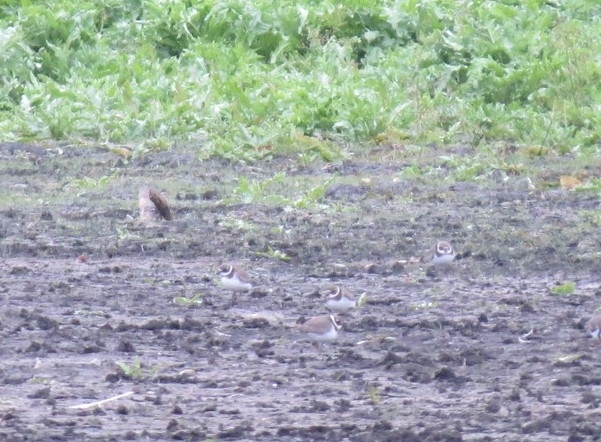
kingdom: Animalia
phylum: Chordata
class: Aves
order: Charadriiformes
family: Charadriidae
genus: Charadrius
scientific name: Charadrius hiaticula
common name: Common ringed plover
